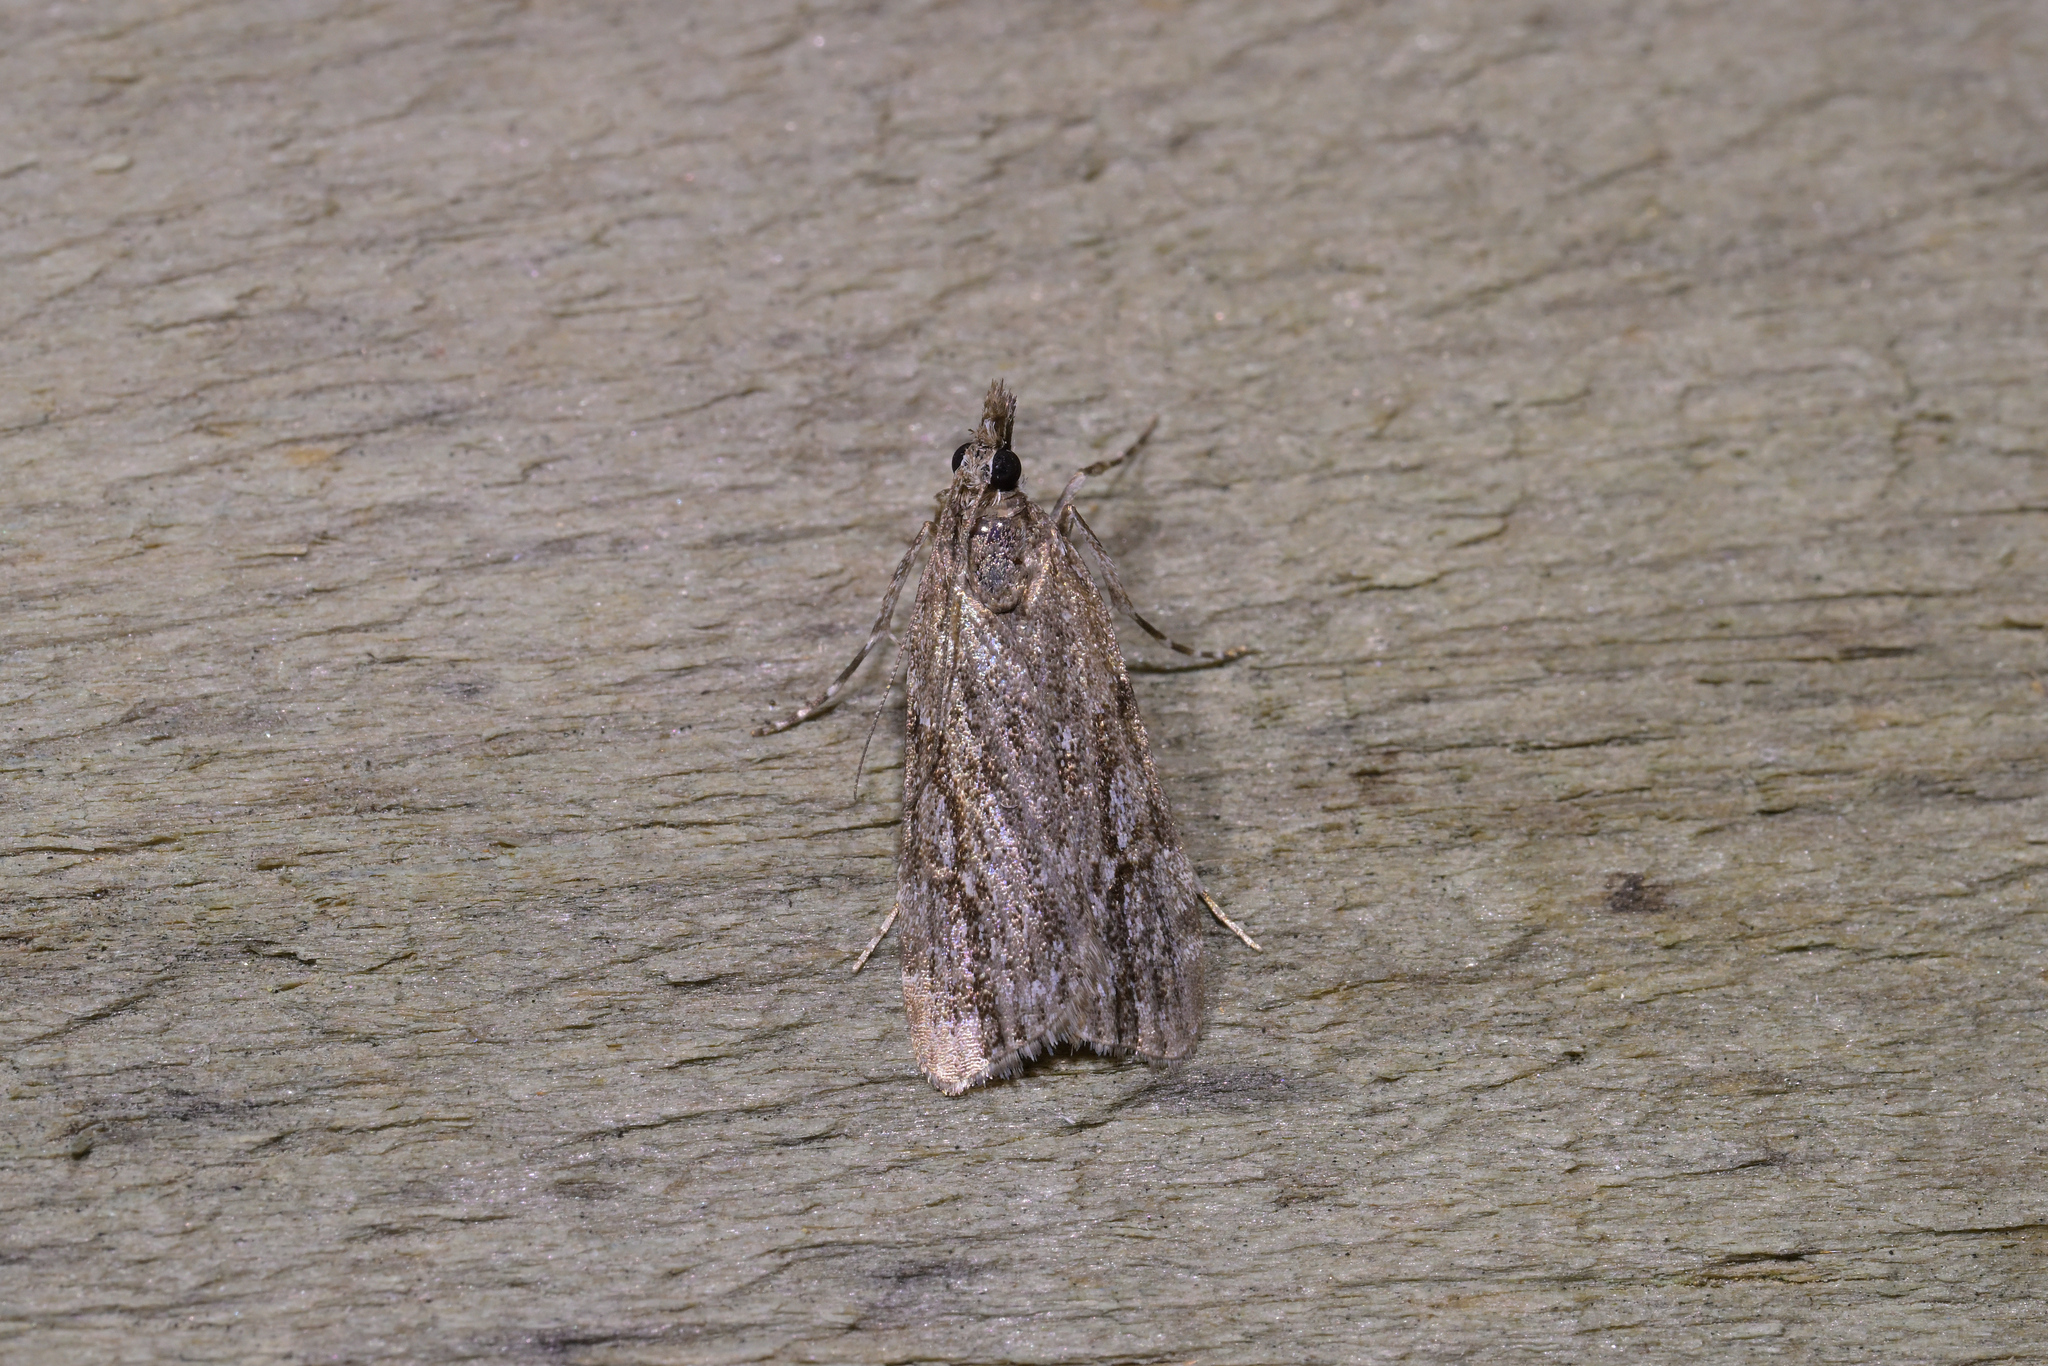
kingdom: Animalia
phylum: Arthropoda
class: Insecta
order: Lepidoptera
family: Crambidae
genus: Eudonia
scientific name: Eudonia bisinualis
